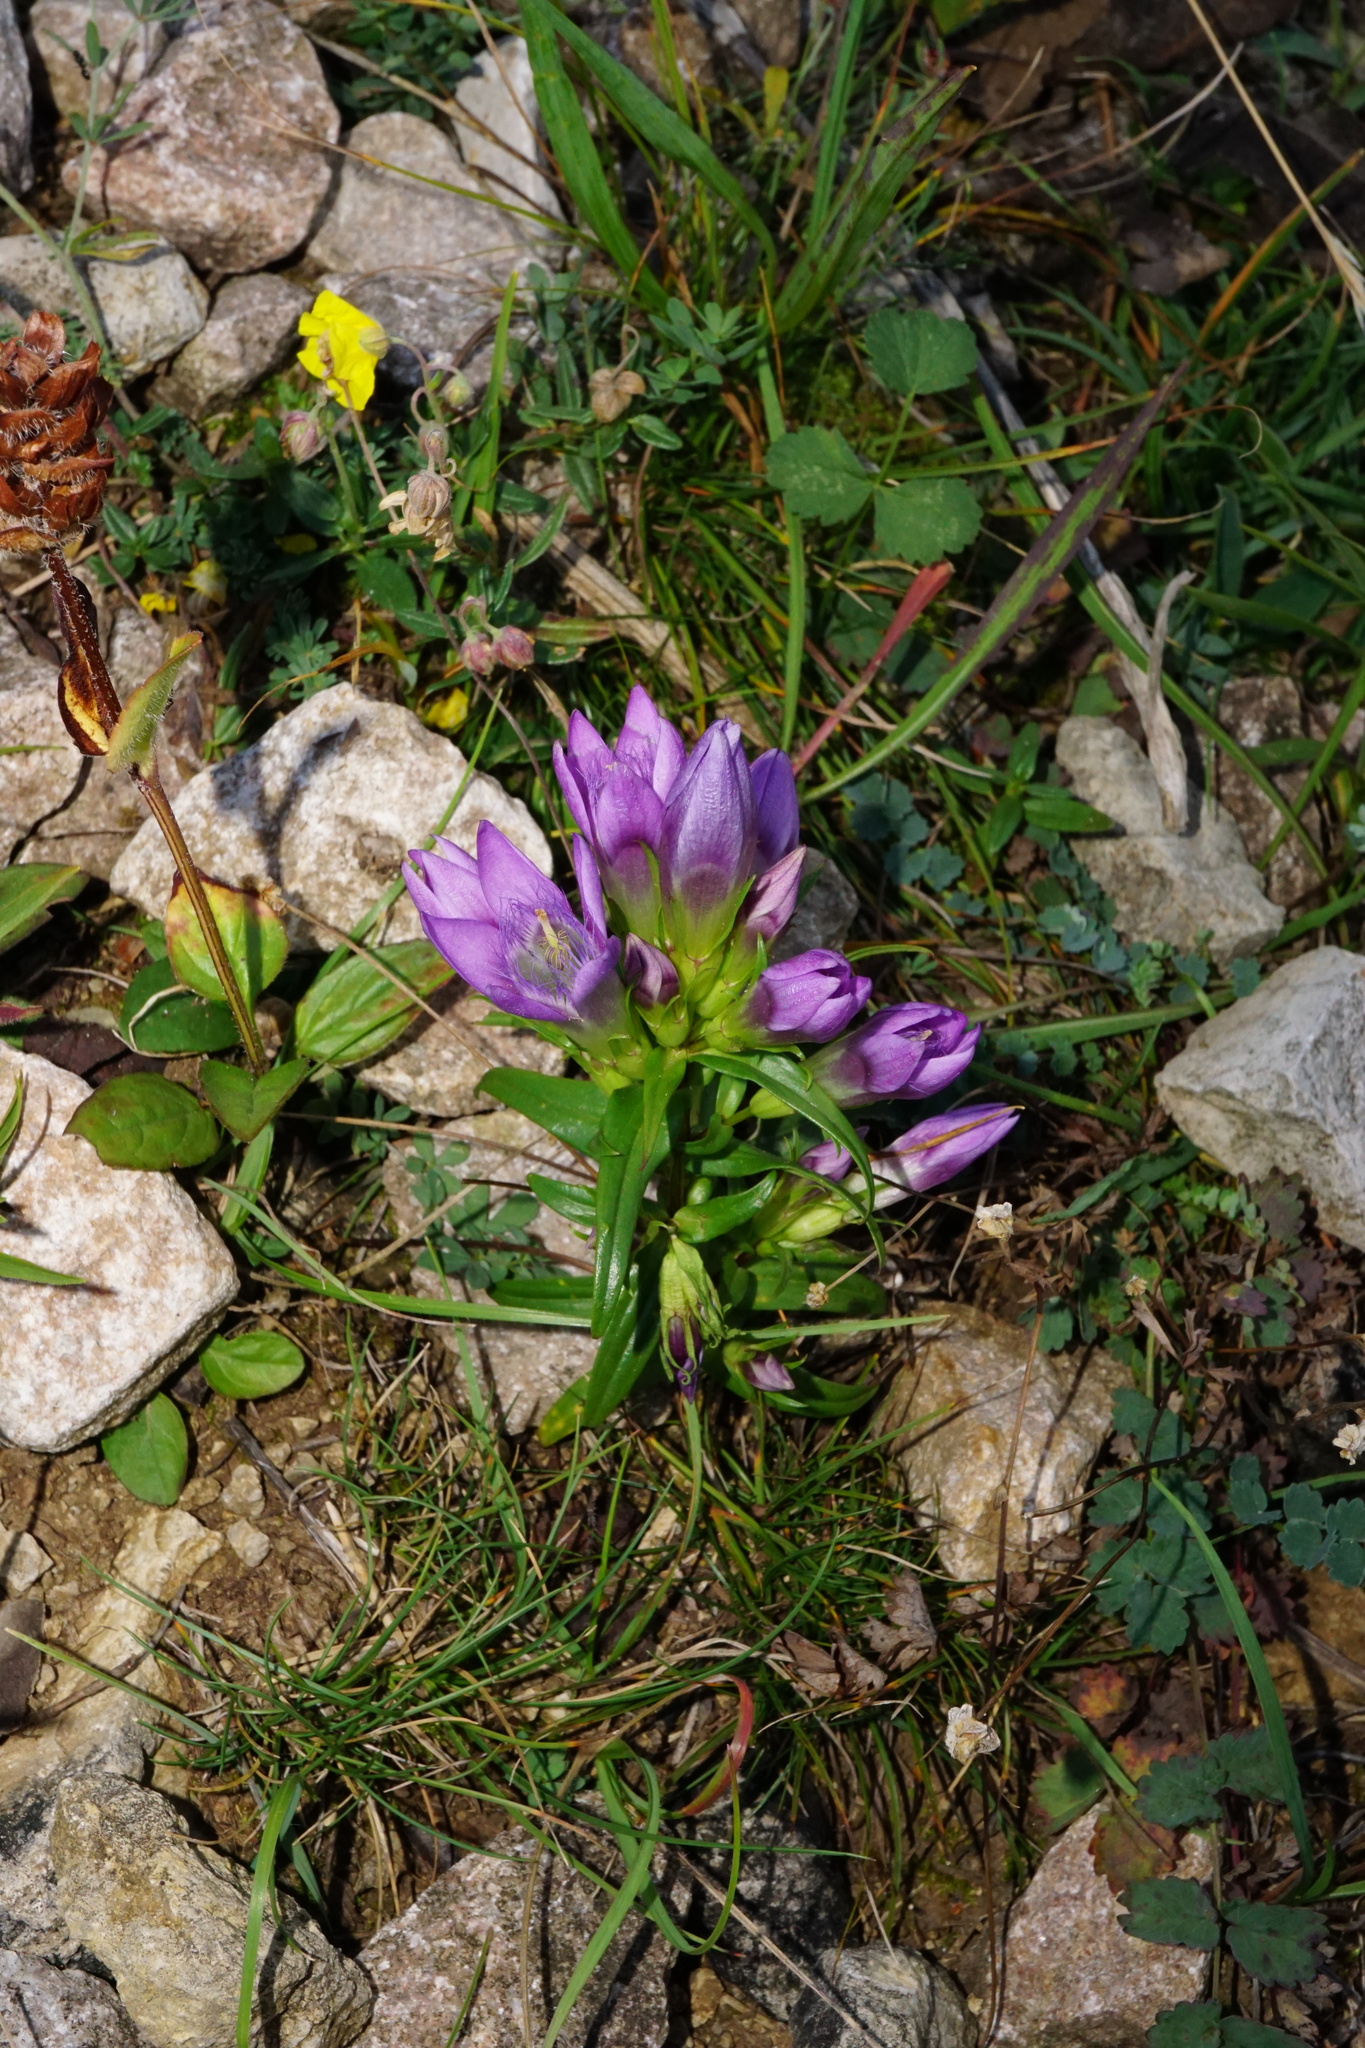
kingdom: Plantae
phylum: Tracheophyta
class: Magnoliopsida
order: Gentianales
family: Gentianaceae
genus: Gentianella
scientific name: Gentianella austriaca
